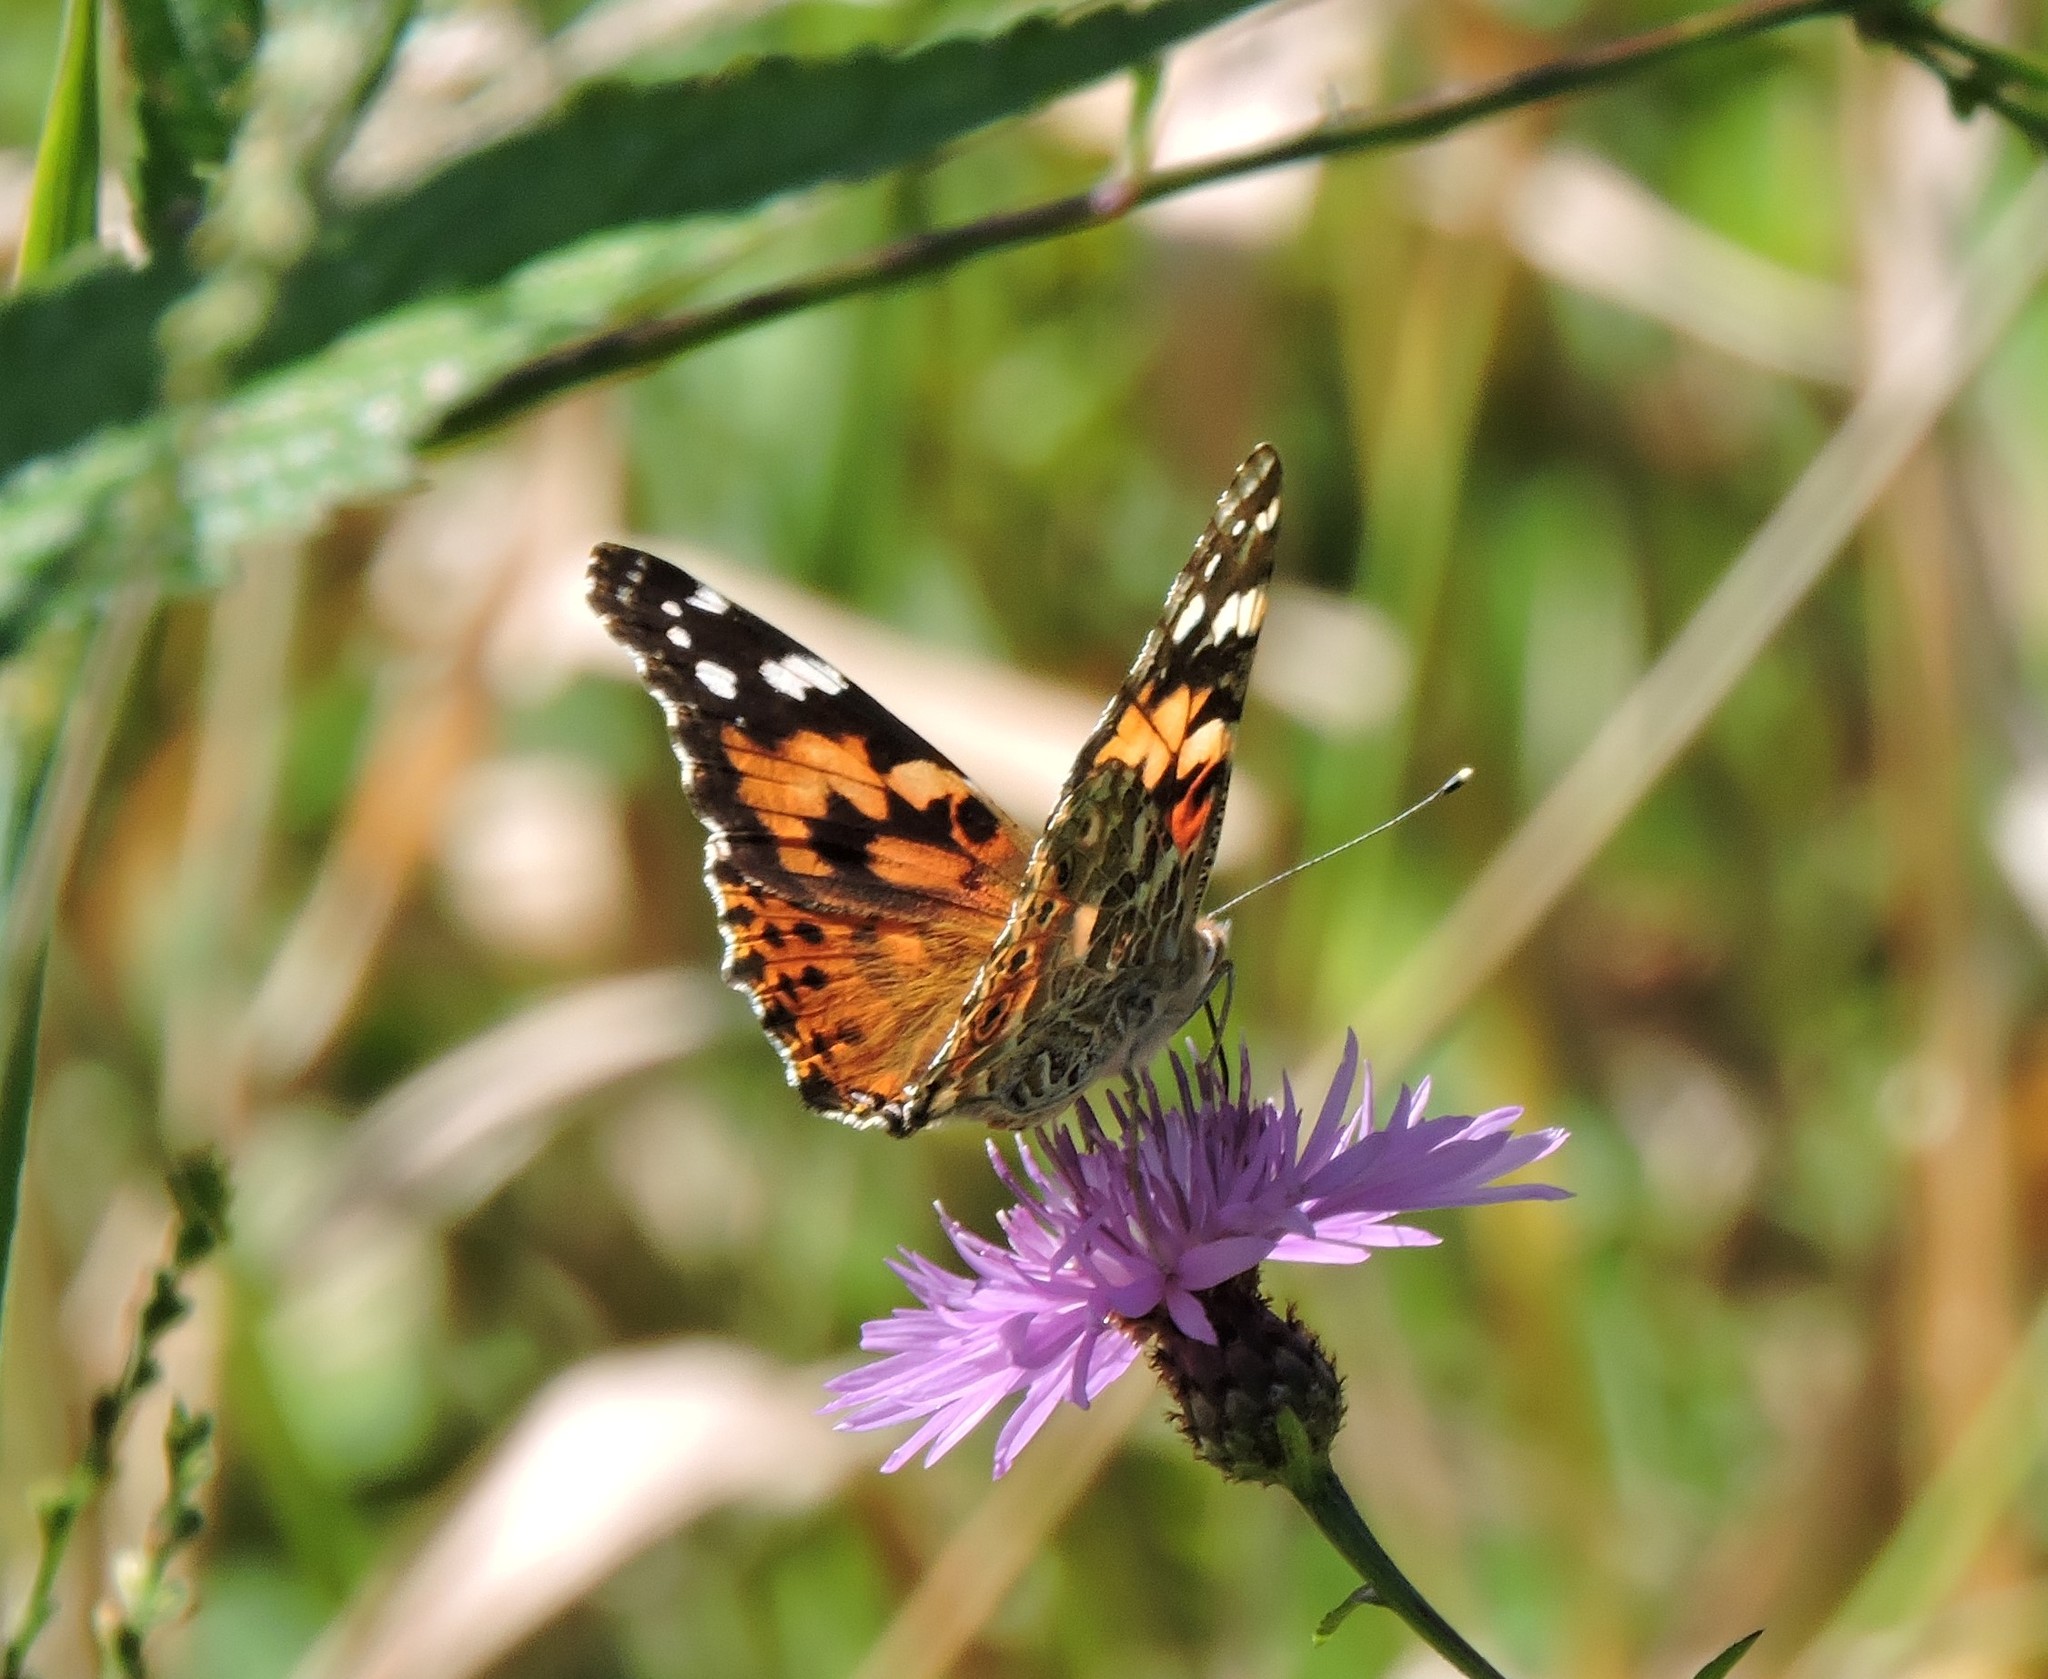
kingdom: Animalia
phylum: Arthropoda
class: Insecta
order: Lepidoptera
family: Nymphalidae
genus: Vanessa
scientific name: Vanessa cardui
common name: Painted lady
